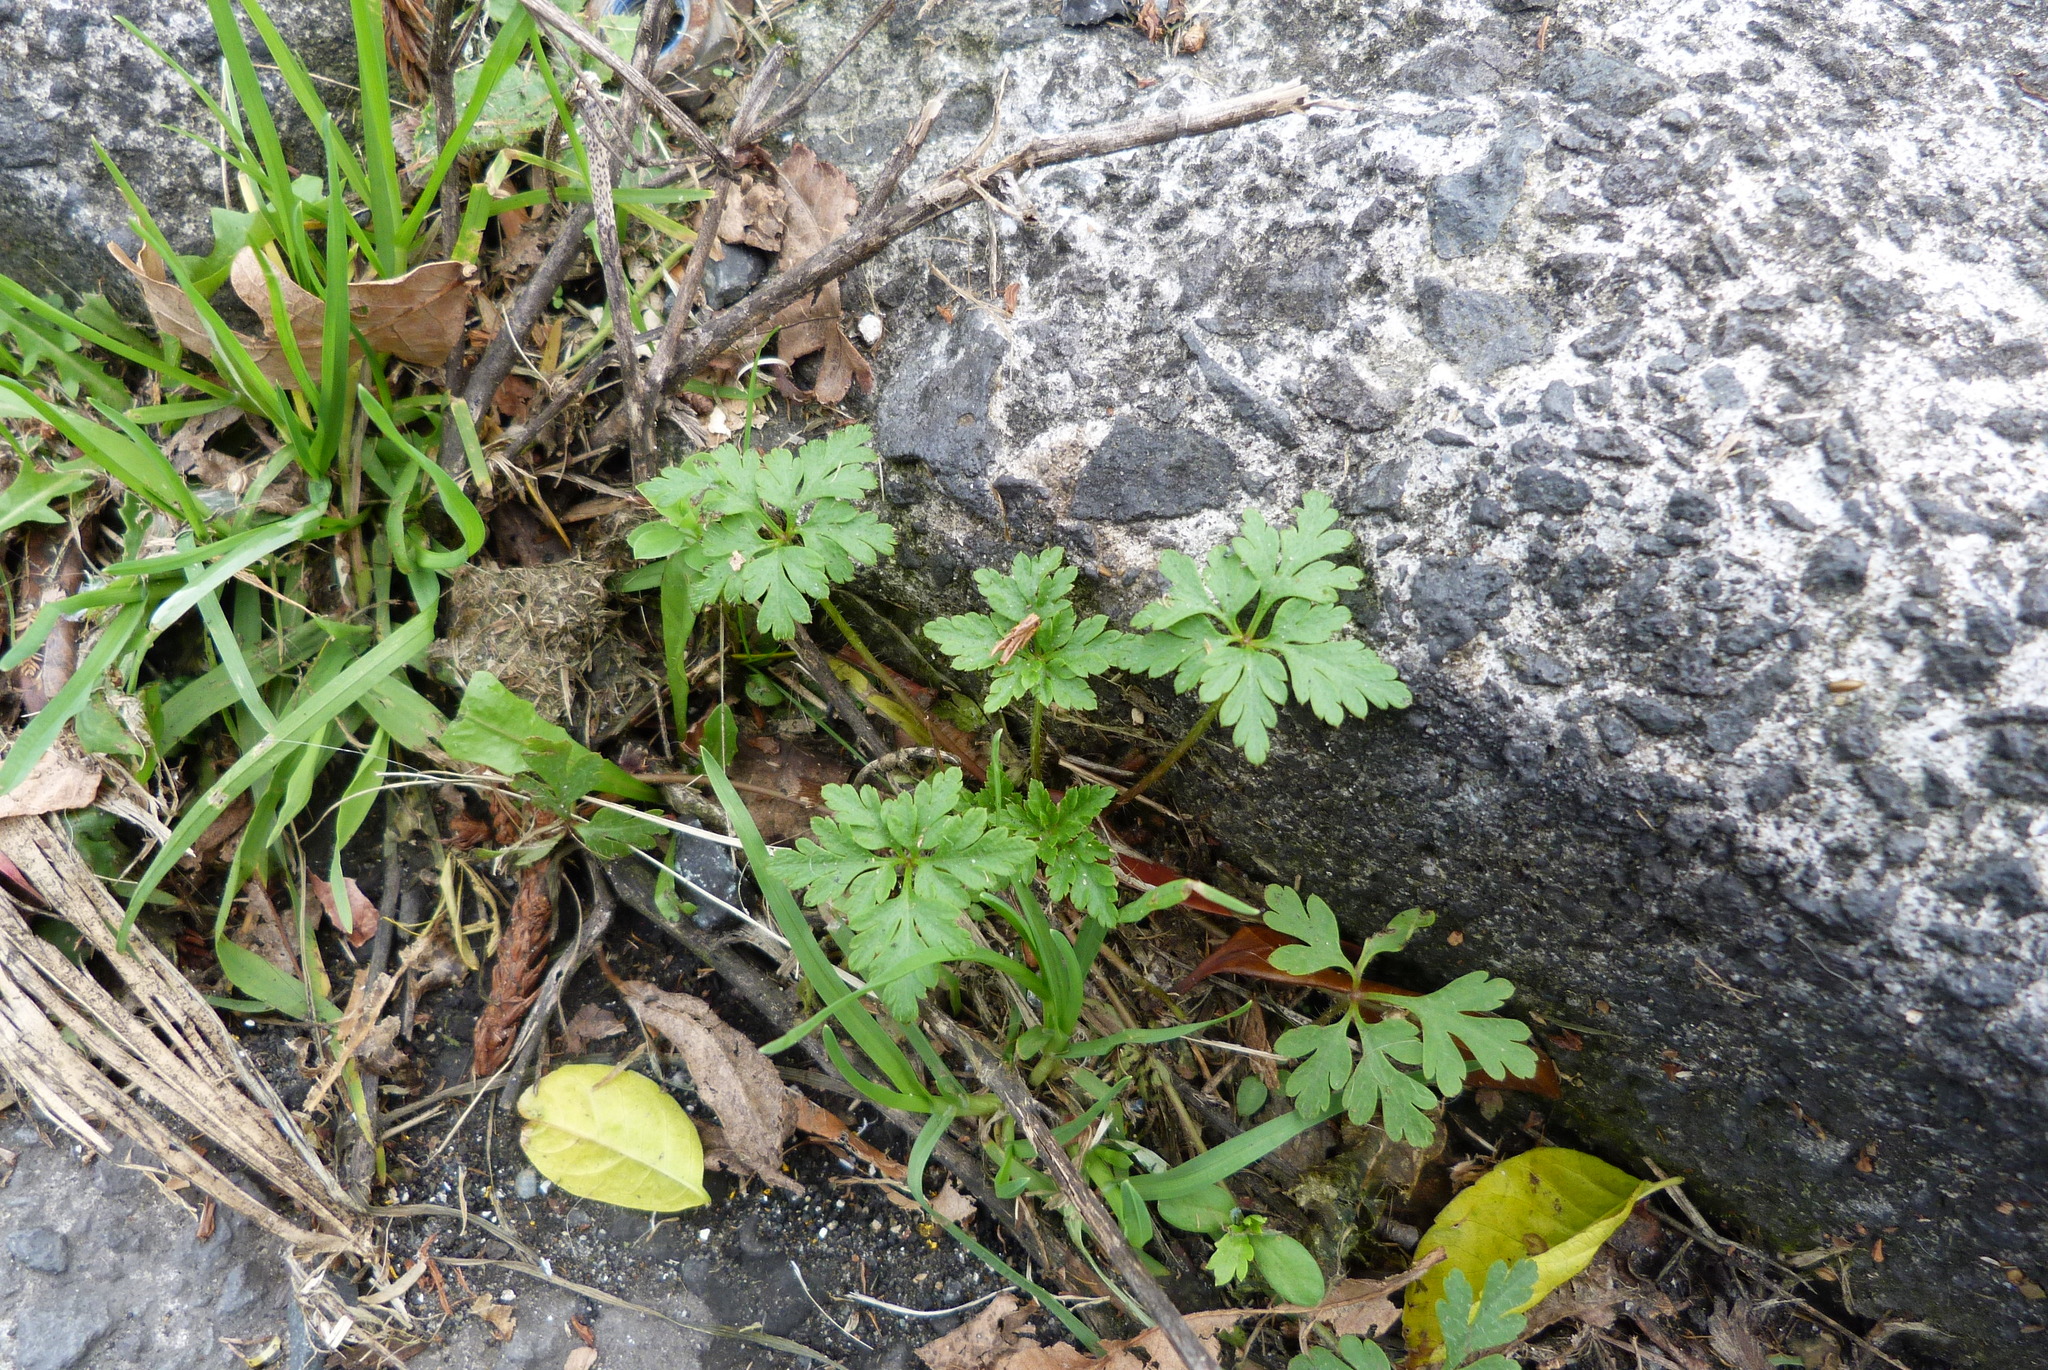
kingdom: Plantae
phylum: Tracheophyta
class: Magnoliopsida
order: Geraniales
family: Geraniaceae
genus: Geranium
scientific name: Geranium robertianum
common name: Herb-robert
